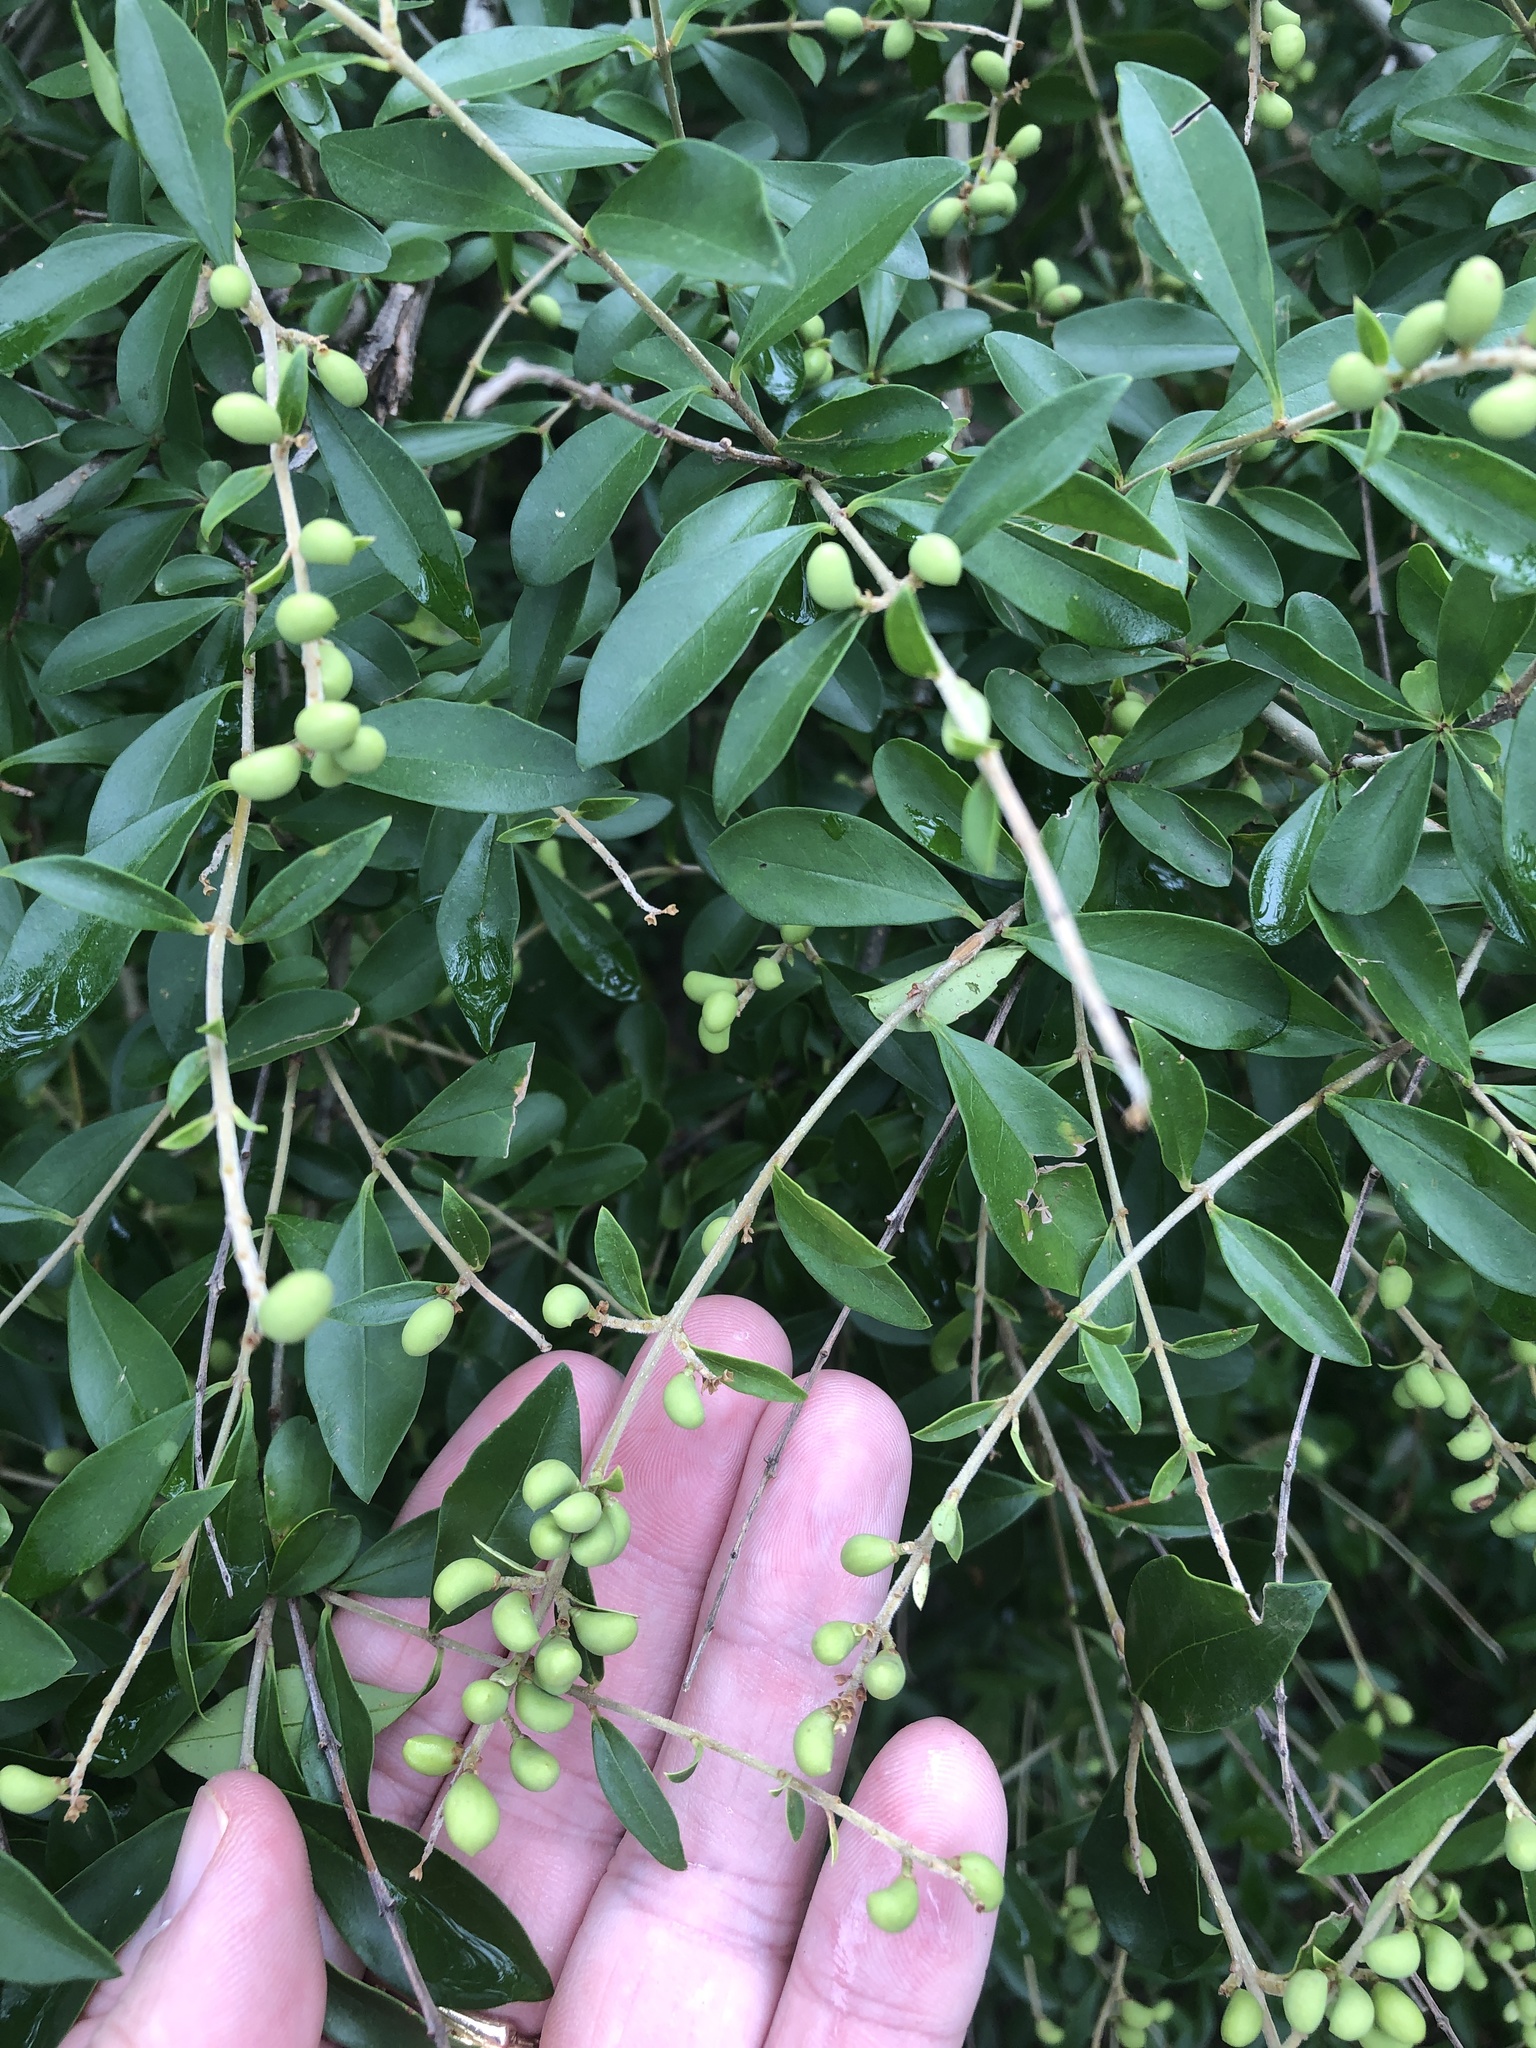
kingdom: Plantae
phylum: Tracheophyta
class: Magnoliopsida
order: Lamiales
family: Oleaceae
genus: Ligustrum
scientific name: Ligustrum quihoui
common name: Waxyleaf privet
